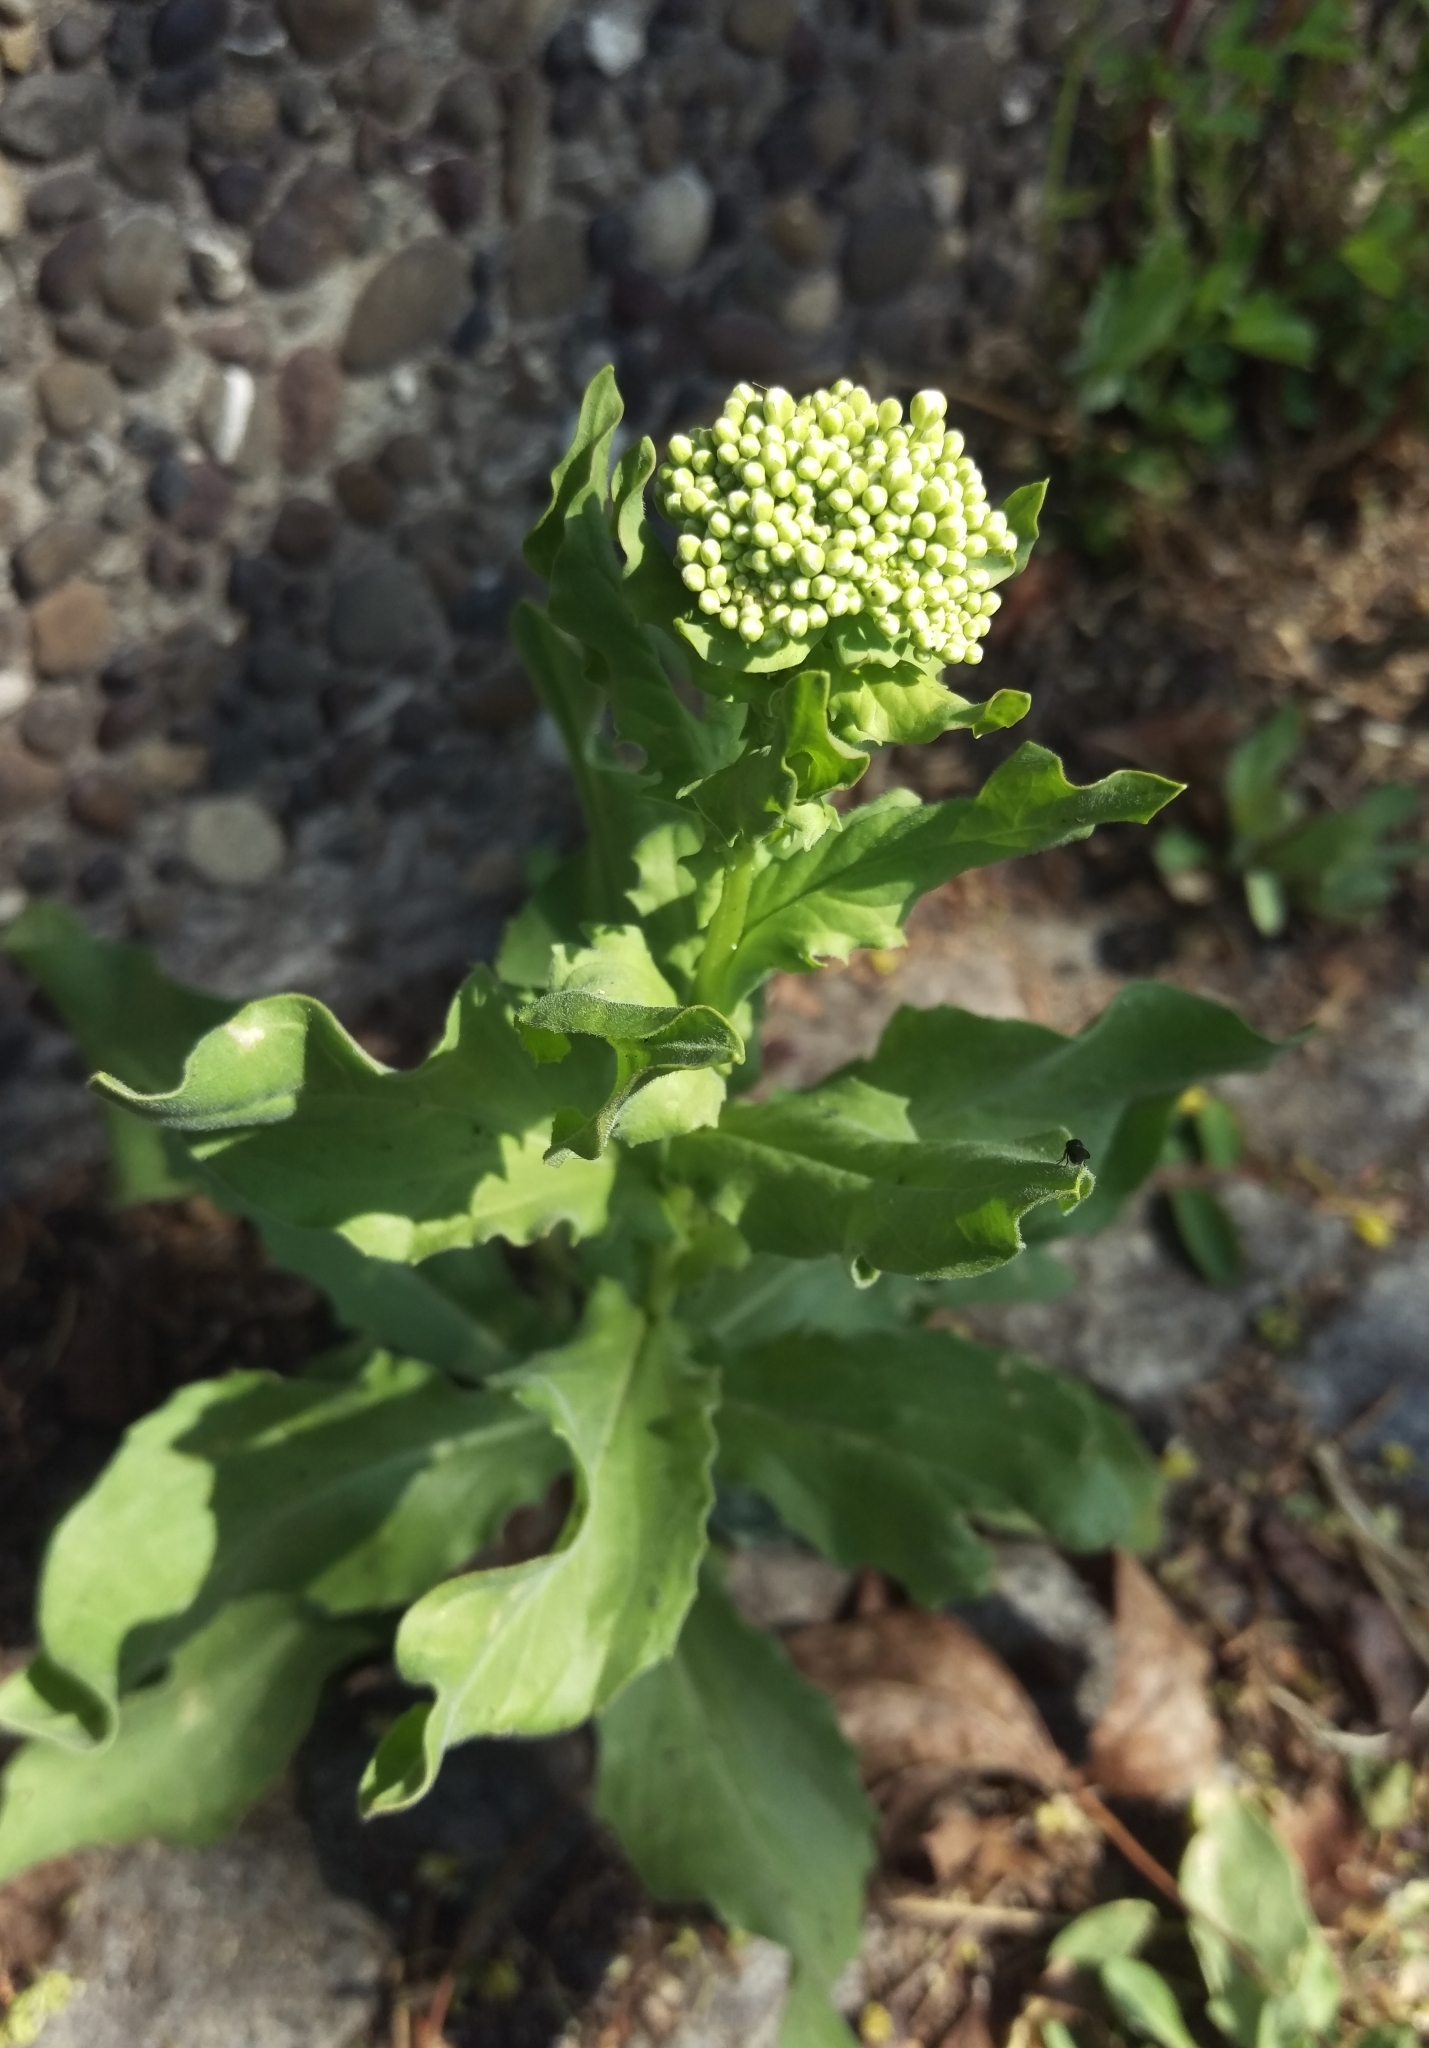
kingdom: Plantae
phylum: Tracheophyta
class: Magnoliopsida
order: Brassicales
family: Brassicaceae
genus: Lepidium
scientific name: Lepidium draba
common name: Hoary cress
